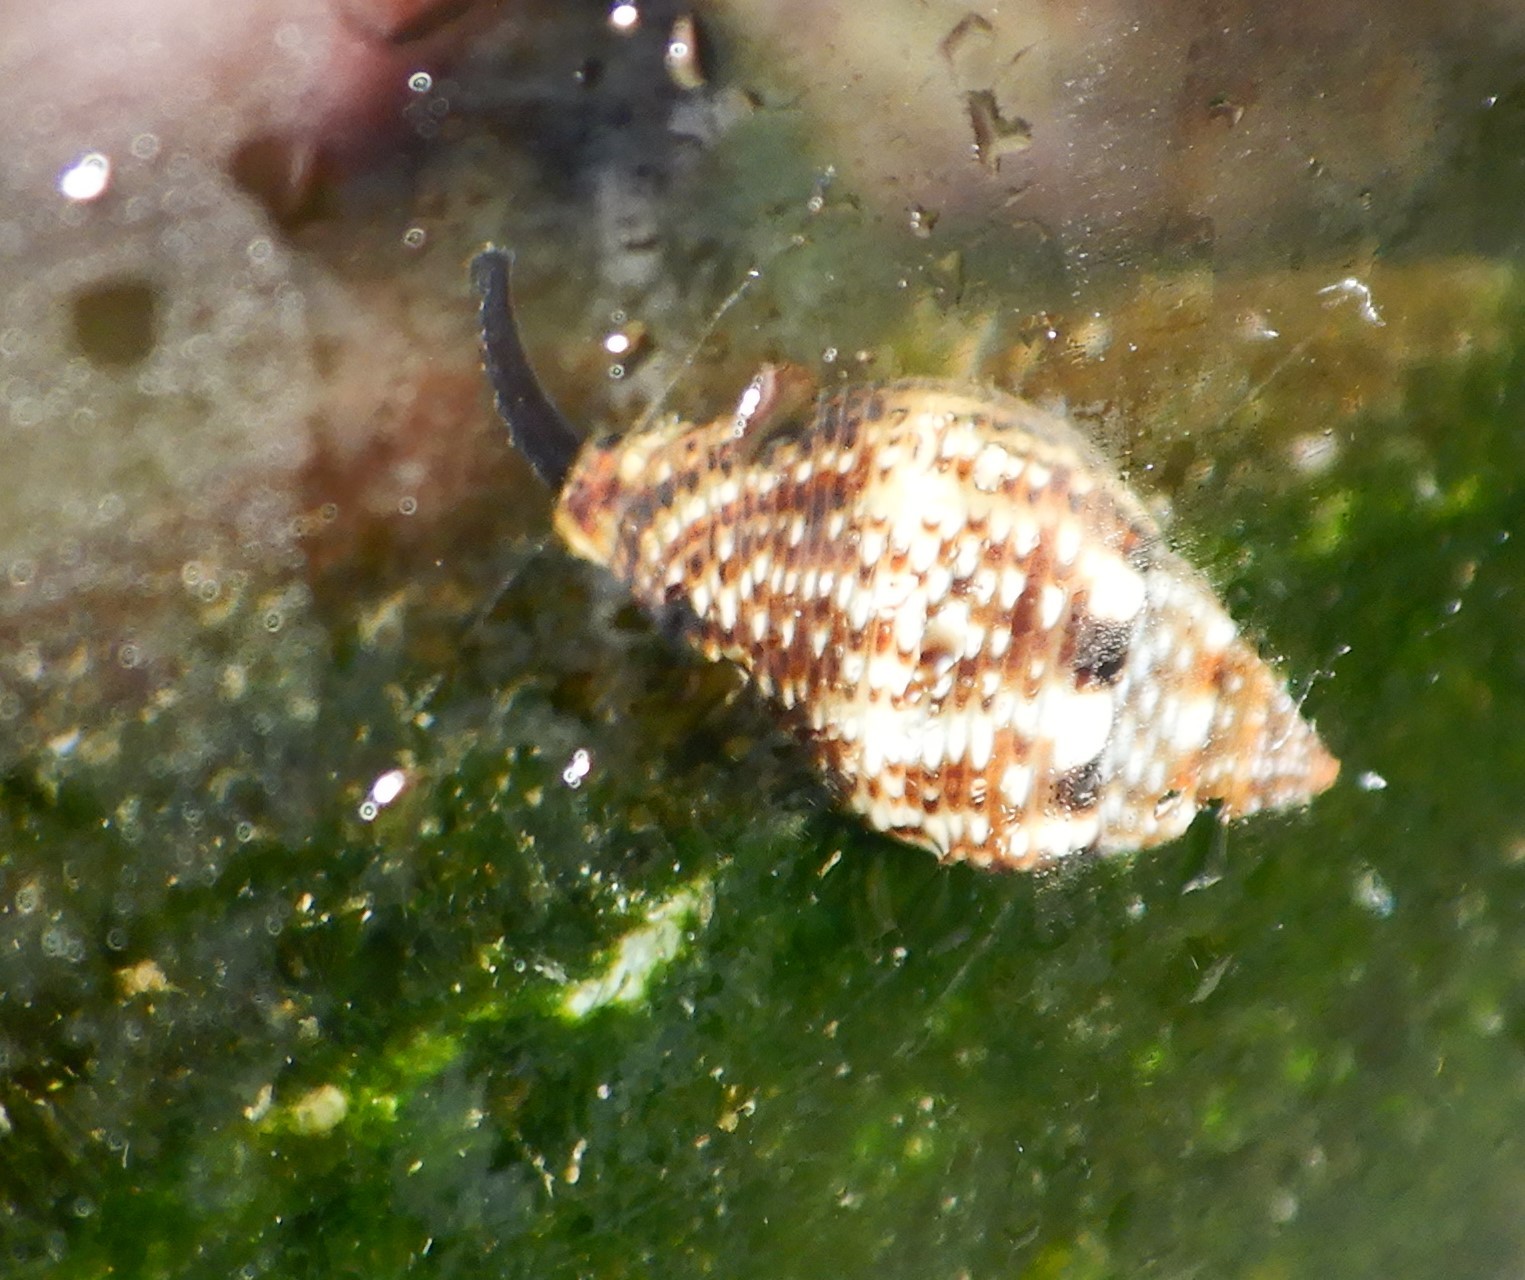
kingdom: Animalia
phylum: Mollusca
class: Gastropoda
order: Neogastropoda
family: Pisaniidae
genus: Pisania
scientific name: Pisania striata
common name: Spotted pisania
